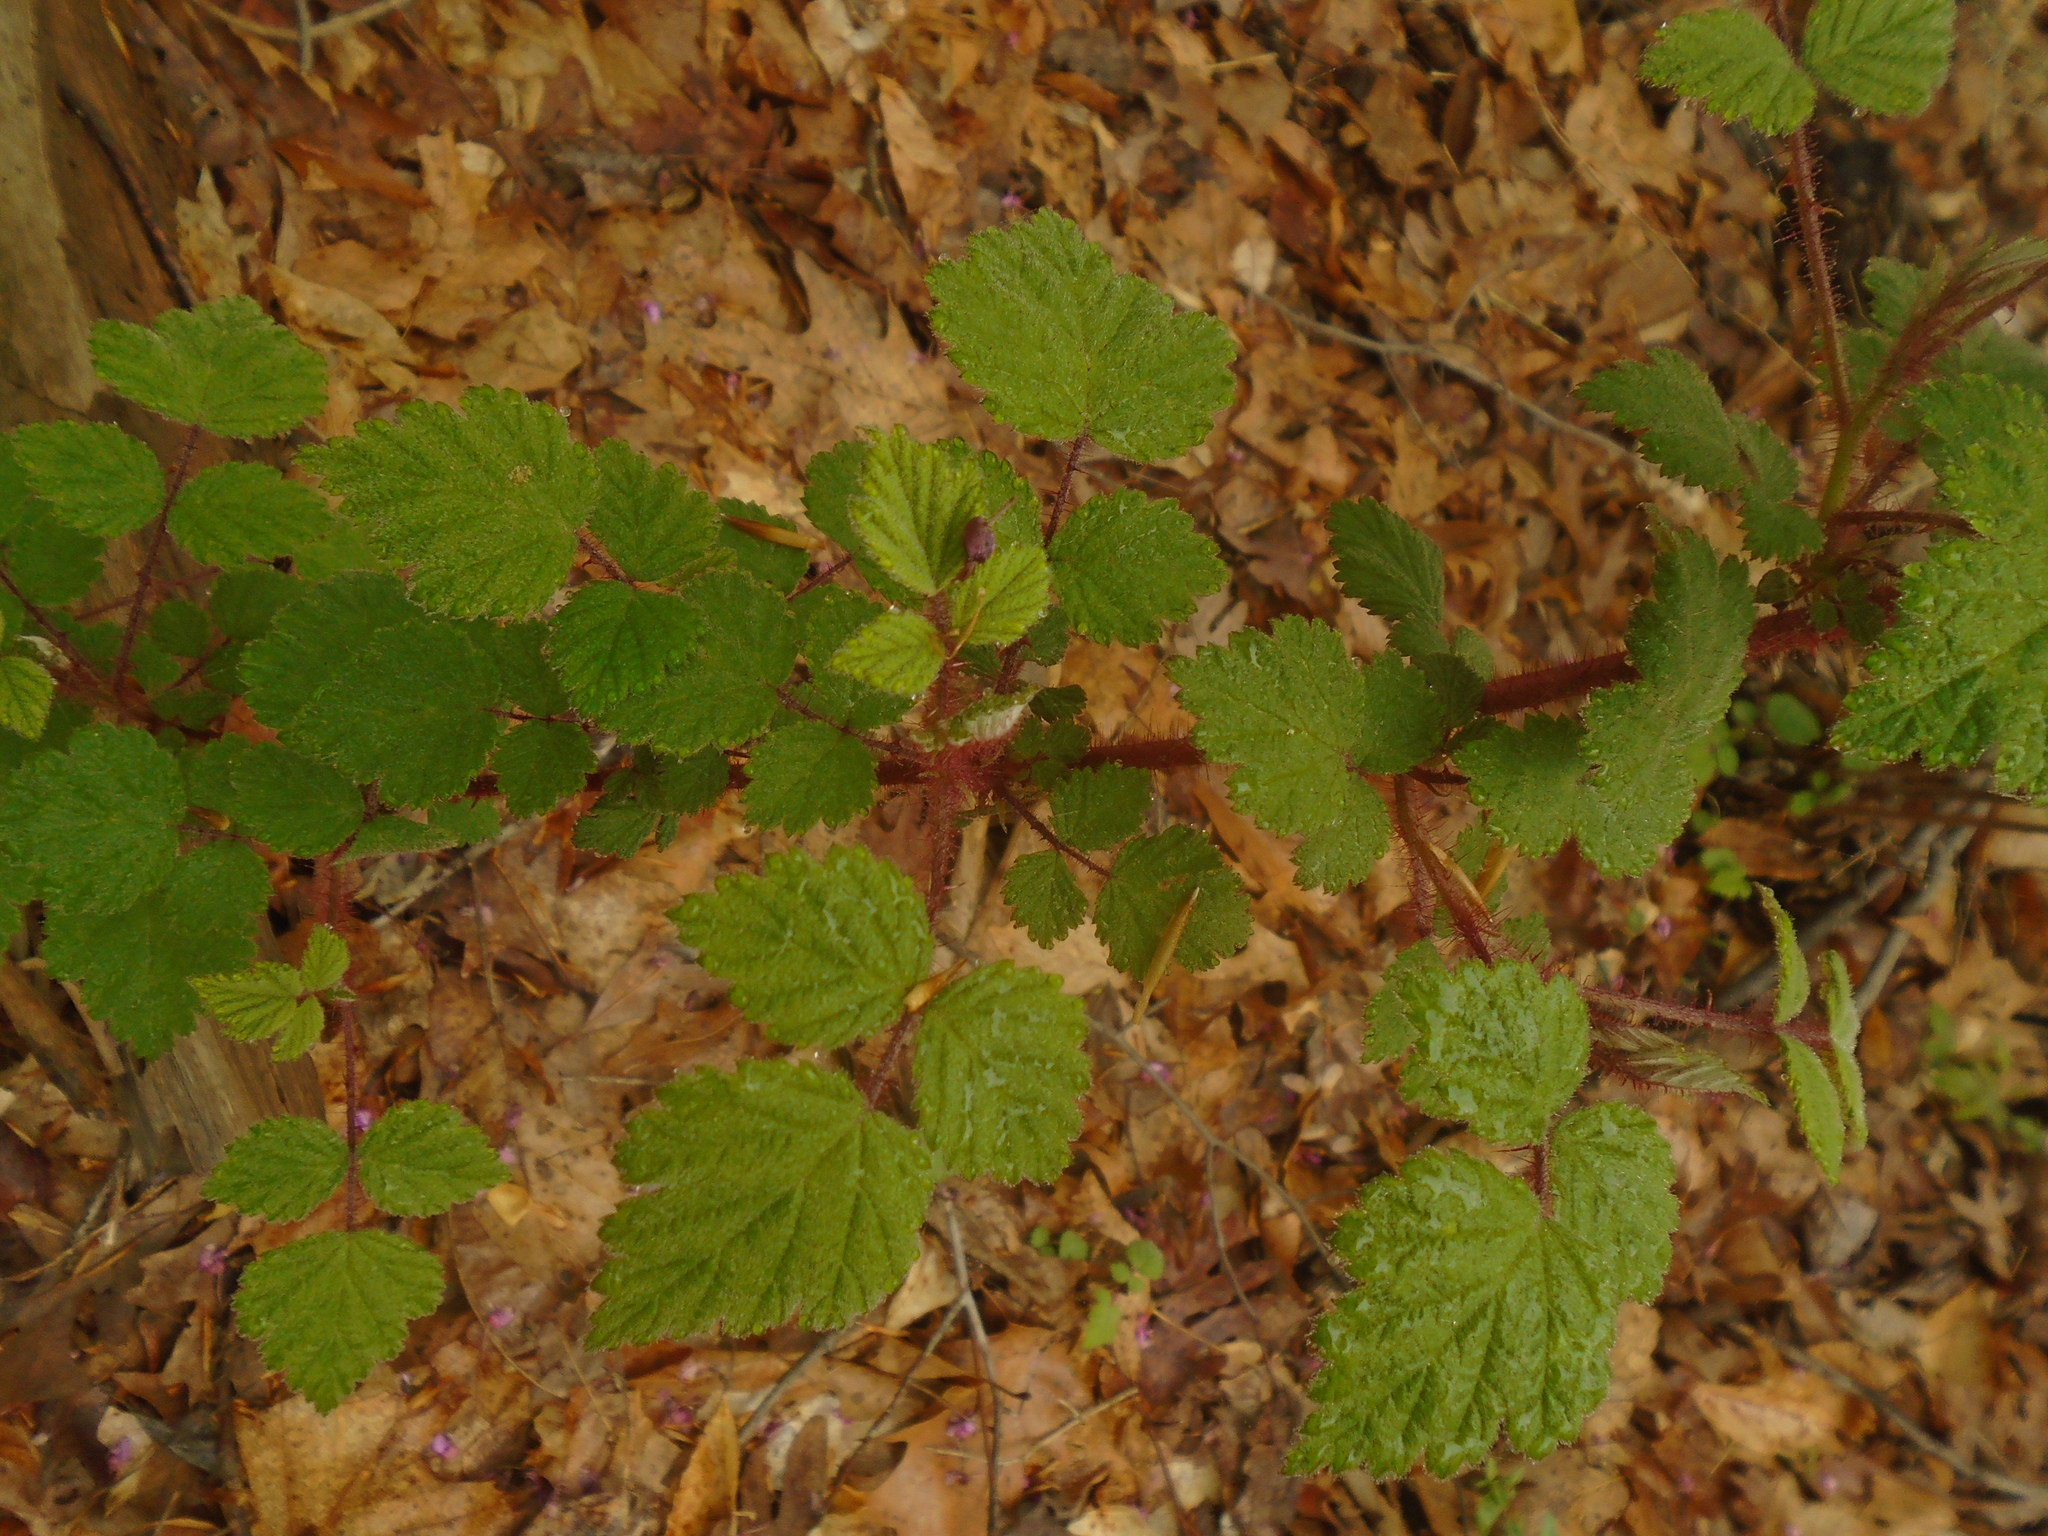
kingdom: Plantae
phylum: Tracheophyta
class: Magnoliopsida
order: Rosales
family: Rosaceae
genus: Rubus
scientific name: Rubus phoenicolasius
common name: Japanese wineberry
